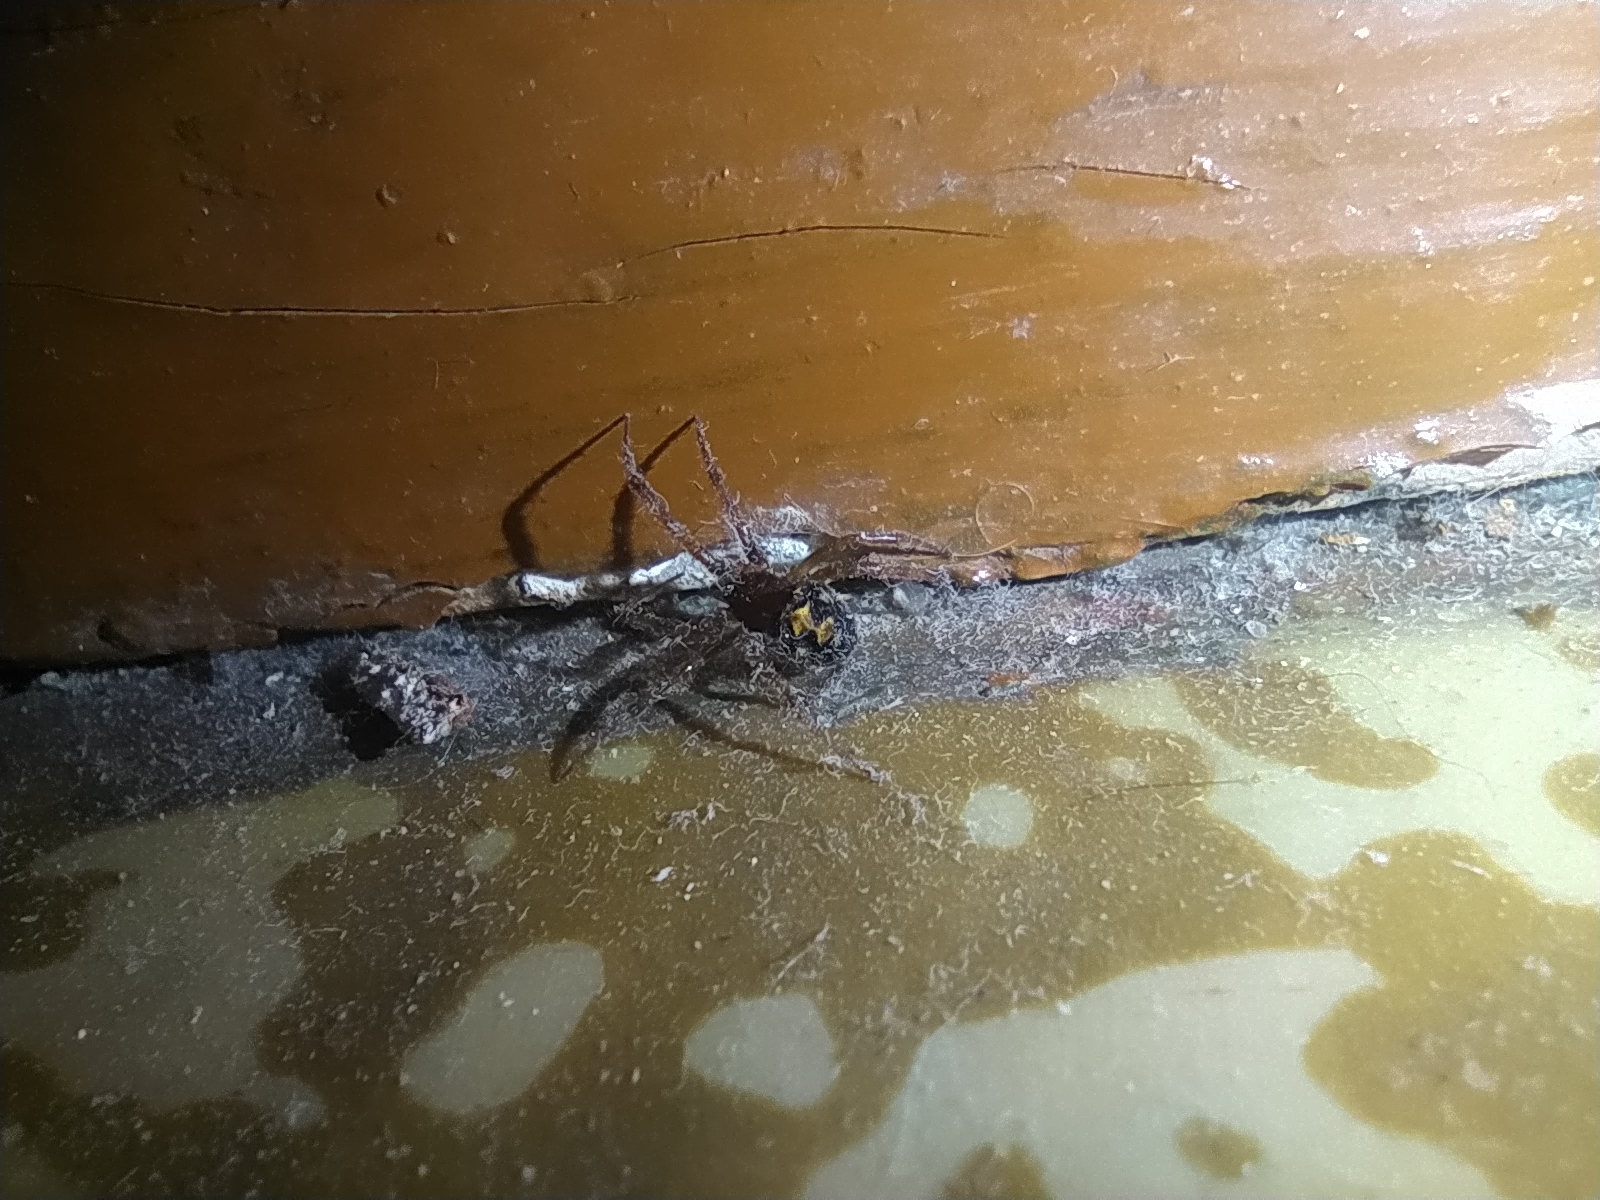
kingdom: Animalia
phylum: Arthropoda
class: Arachnida
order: Araneae
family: Theridiidae
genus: Steatoda
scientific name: Steatoda triangulosa
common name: Triangulate bud spider
